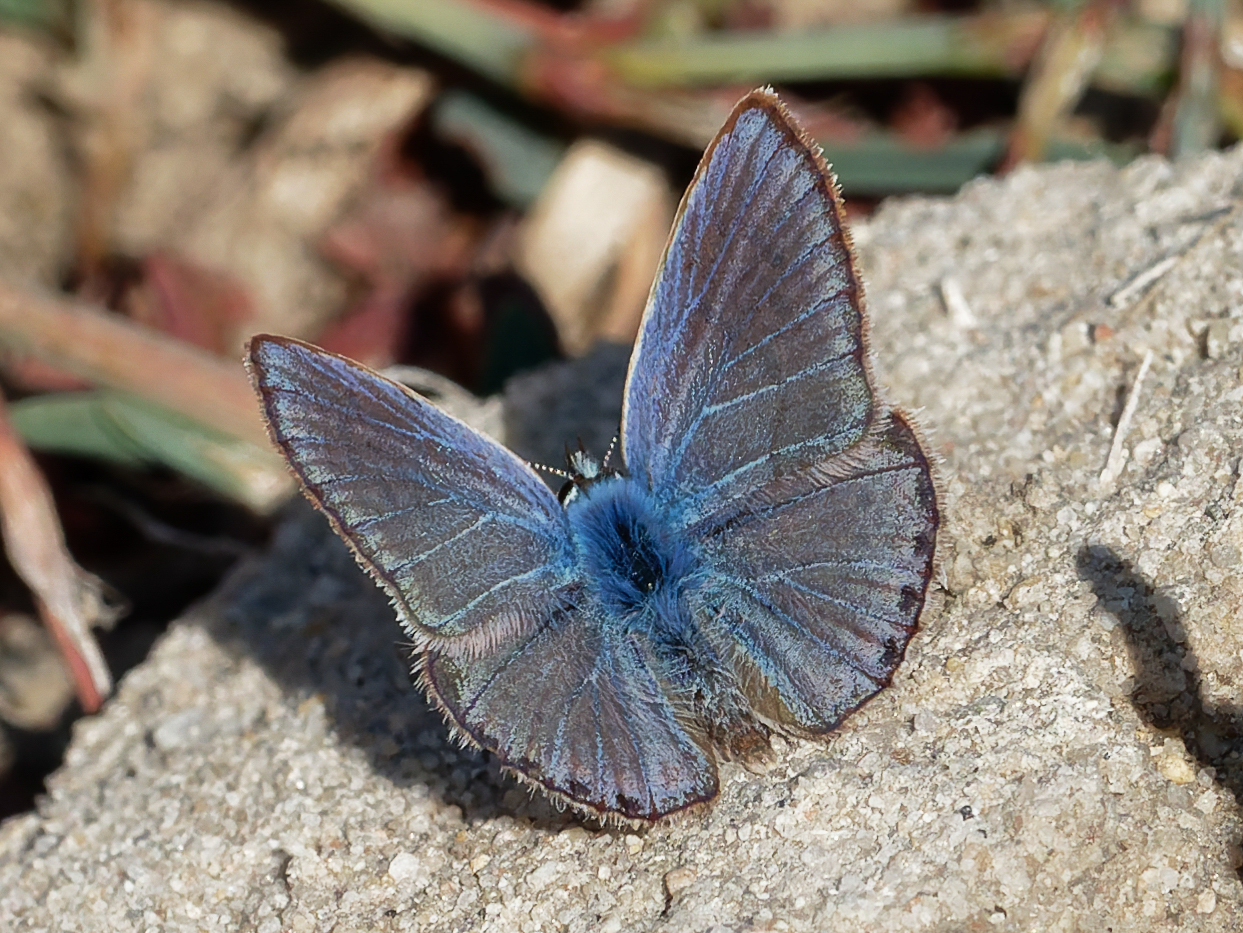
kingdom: Animalia
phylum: Arthropoda
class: Insecta
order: Lepidoptera
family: Lycaenidae
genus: Polyommatus
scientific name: Polyommatus celina
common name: Austaut's blue
